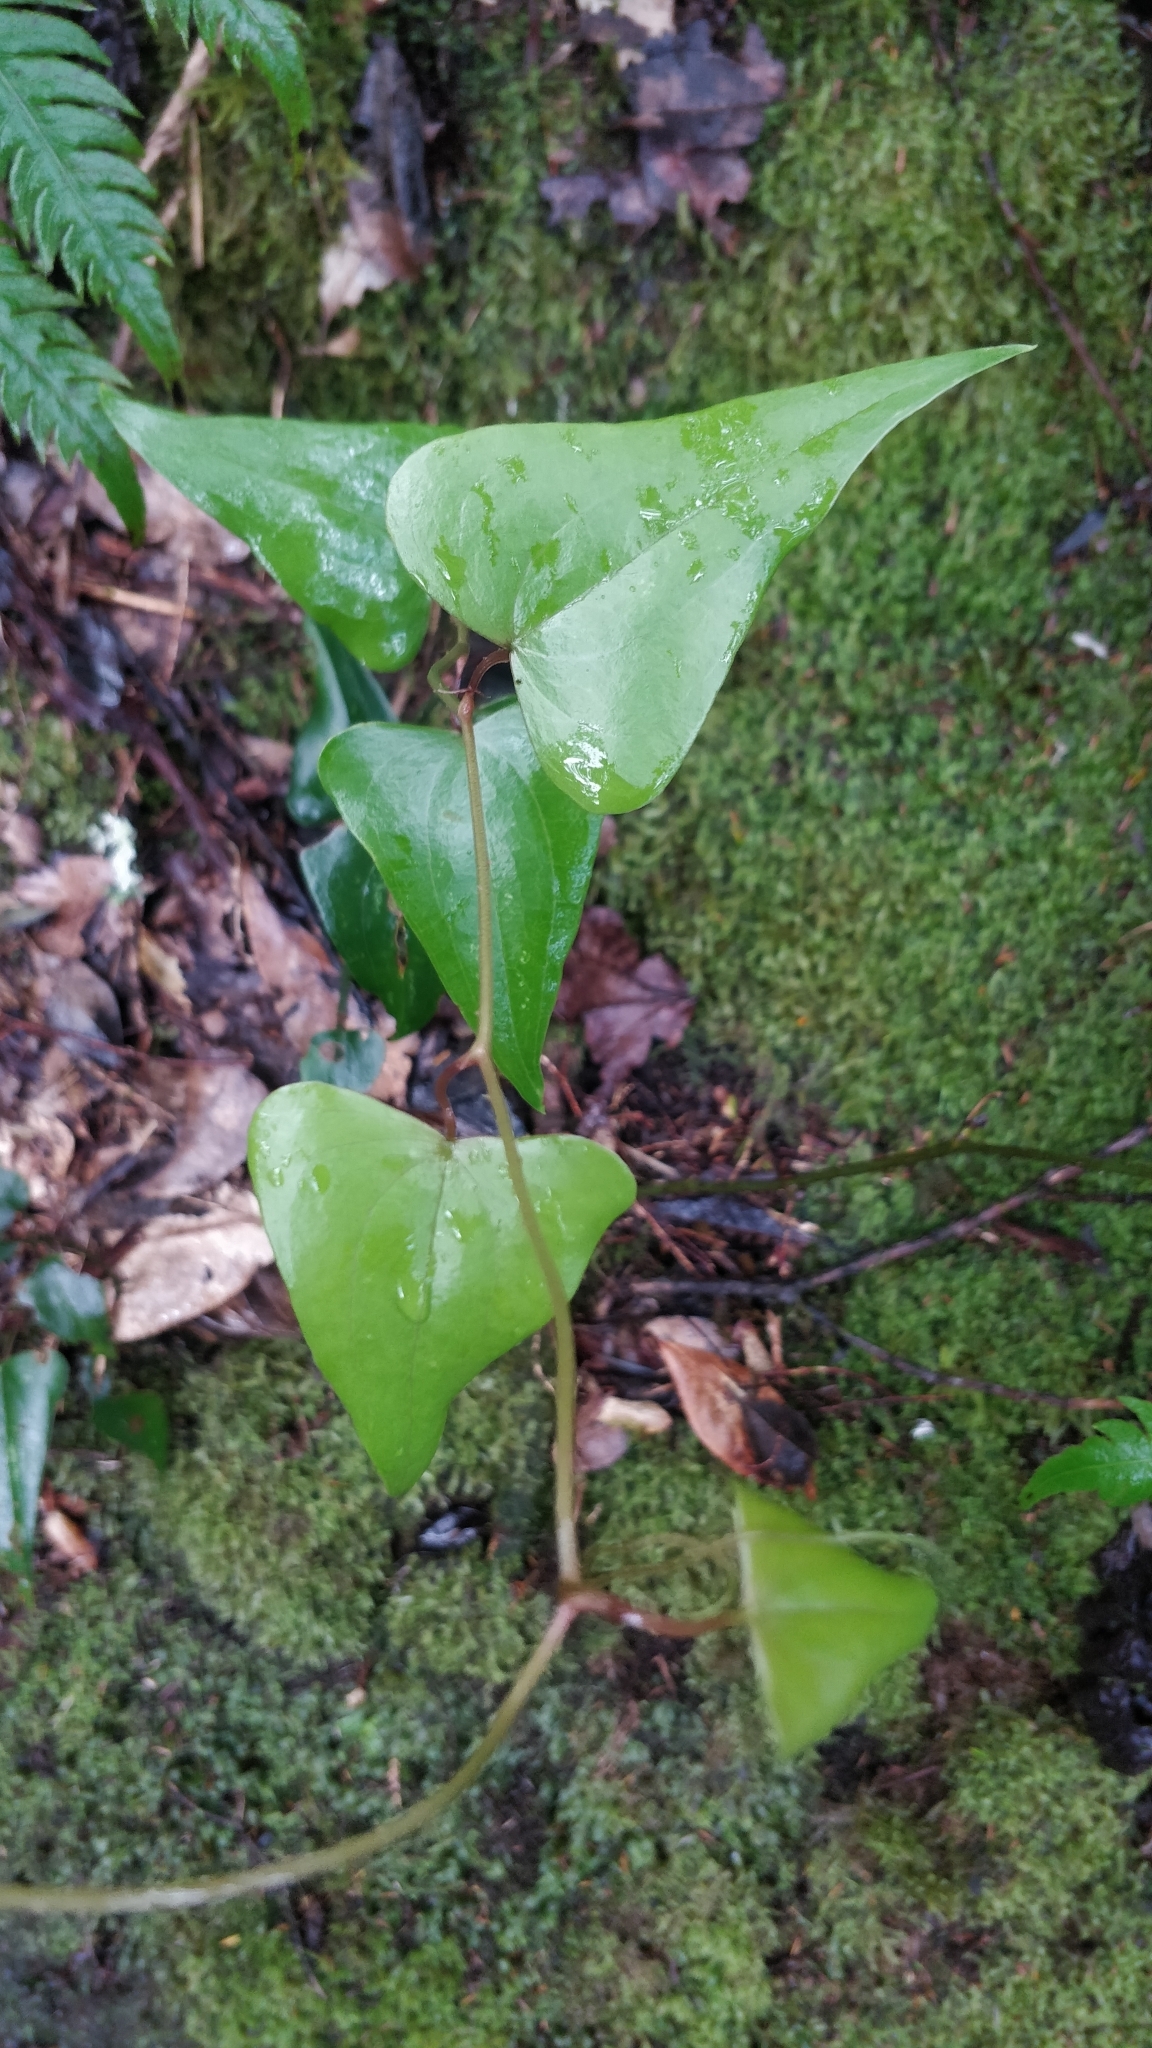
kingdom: Plantae
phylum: Tracheophyta
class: Liliopsida
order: Liliales
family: Smilacaceae
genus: Smilax
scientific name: Smilax aspera
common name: Common smilax
